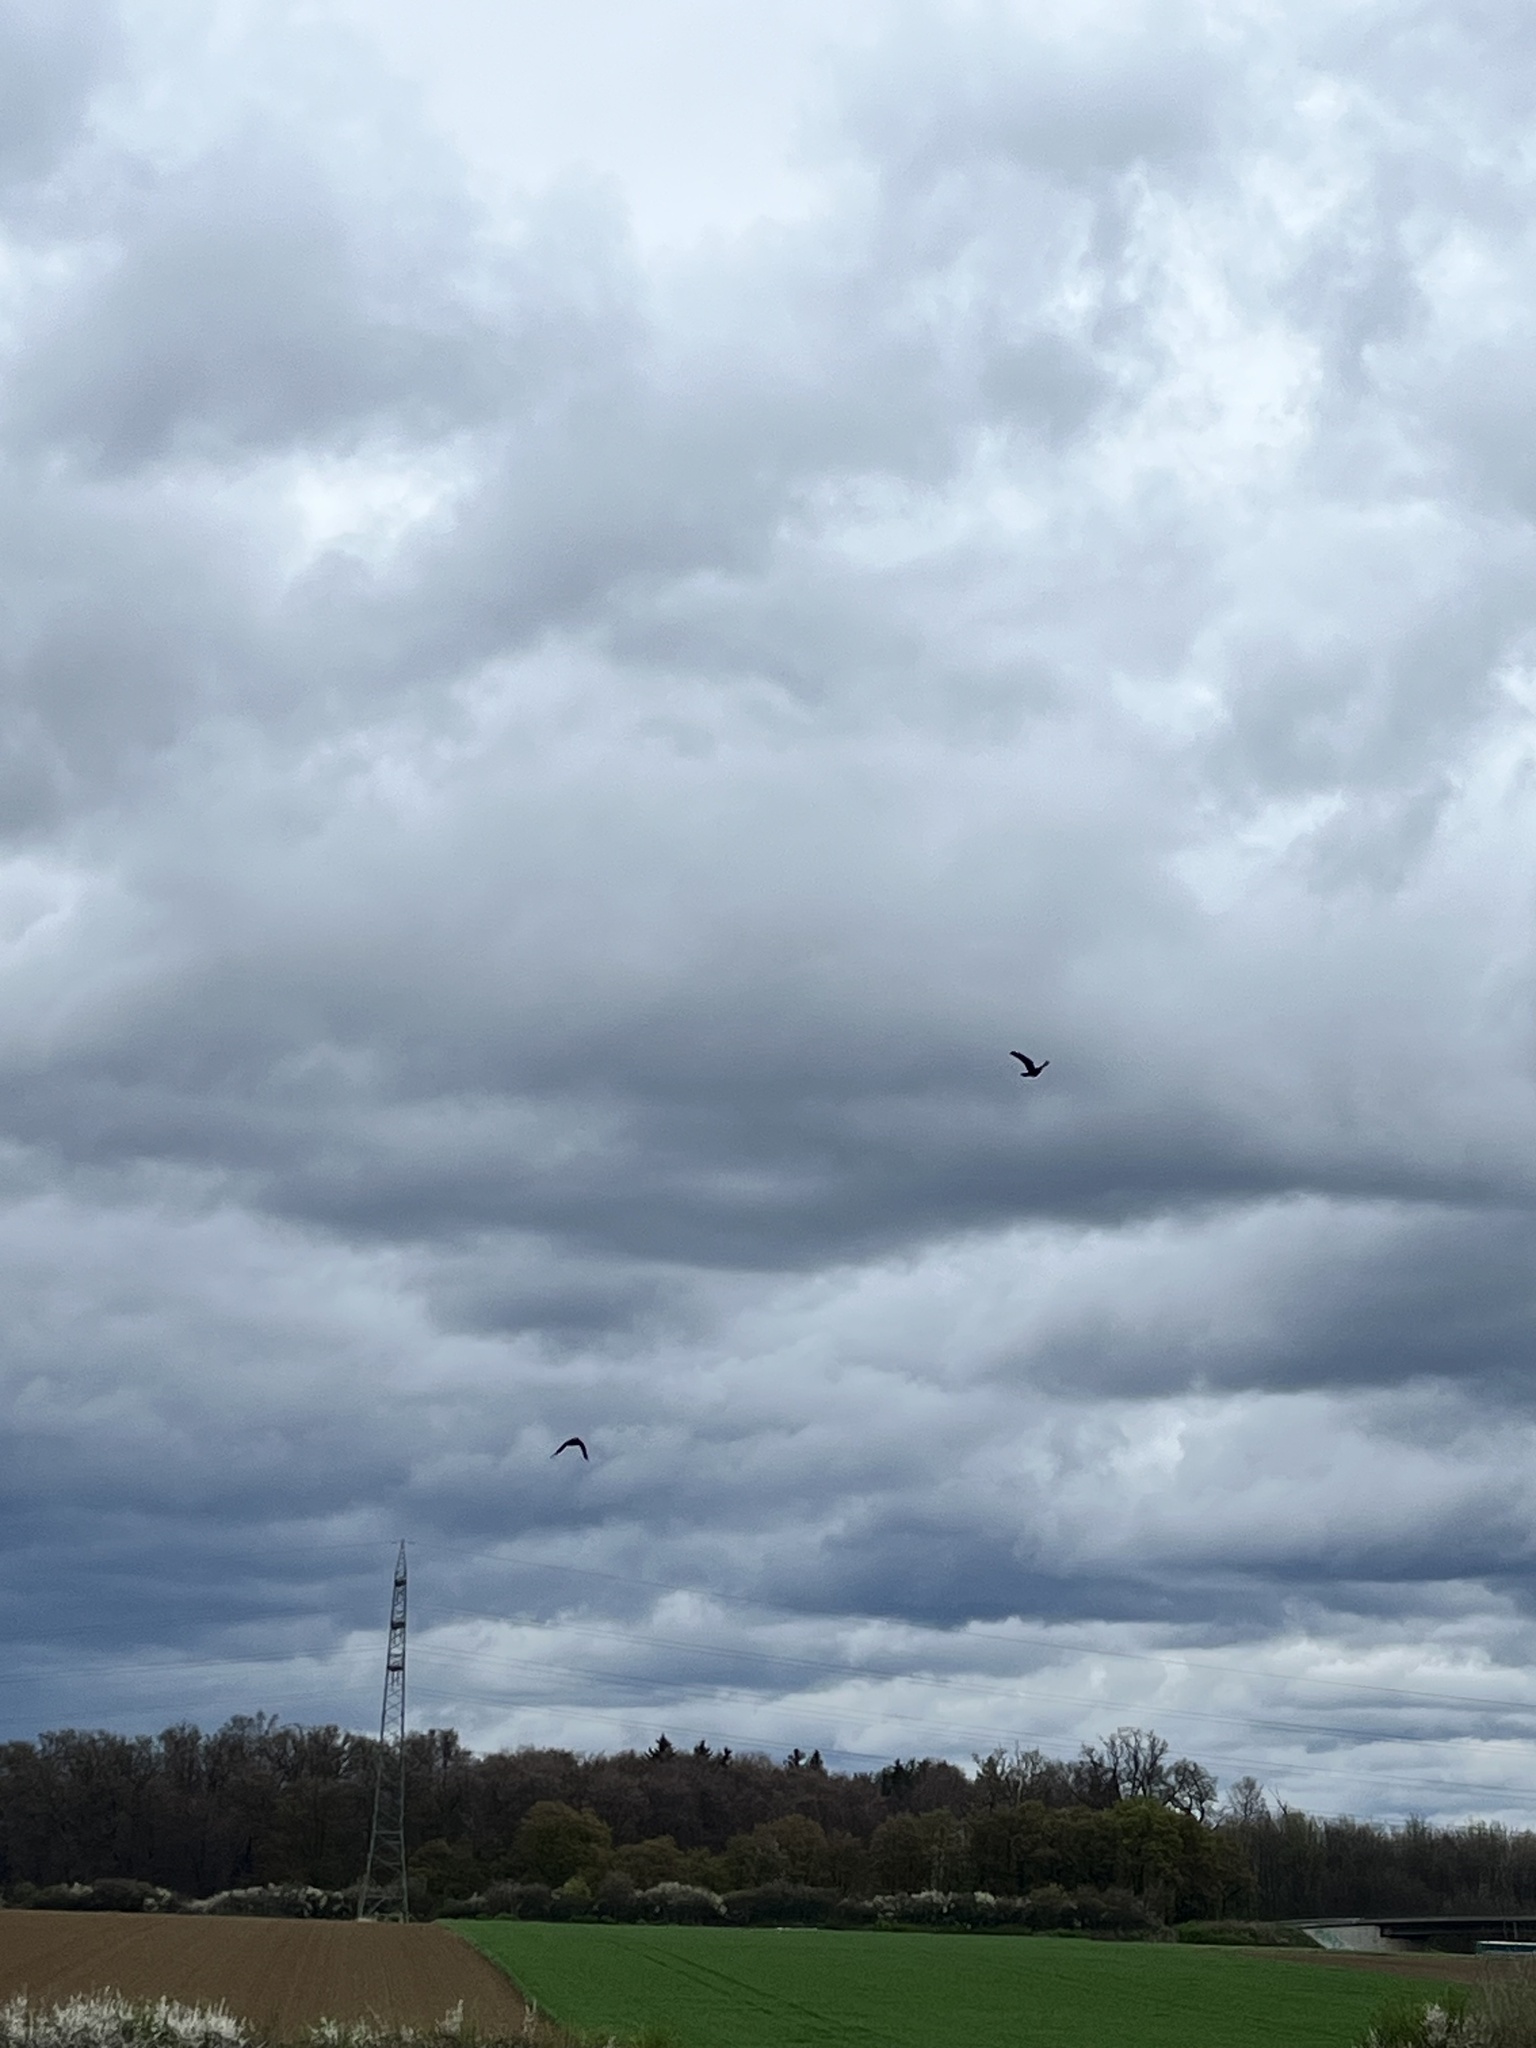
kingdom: Animalia
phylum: Chordata
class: Aves
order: Passeriformes
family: Corvidae
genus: Corvus
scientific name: Corvus corone
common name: Carrion crow
